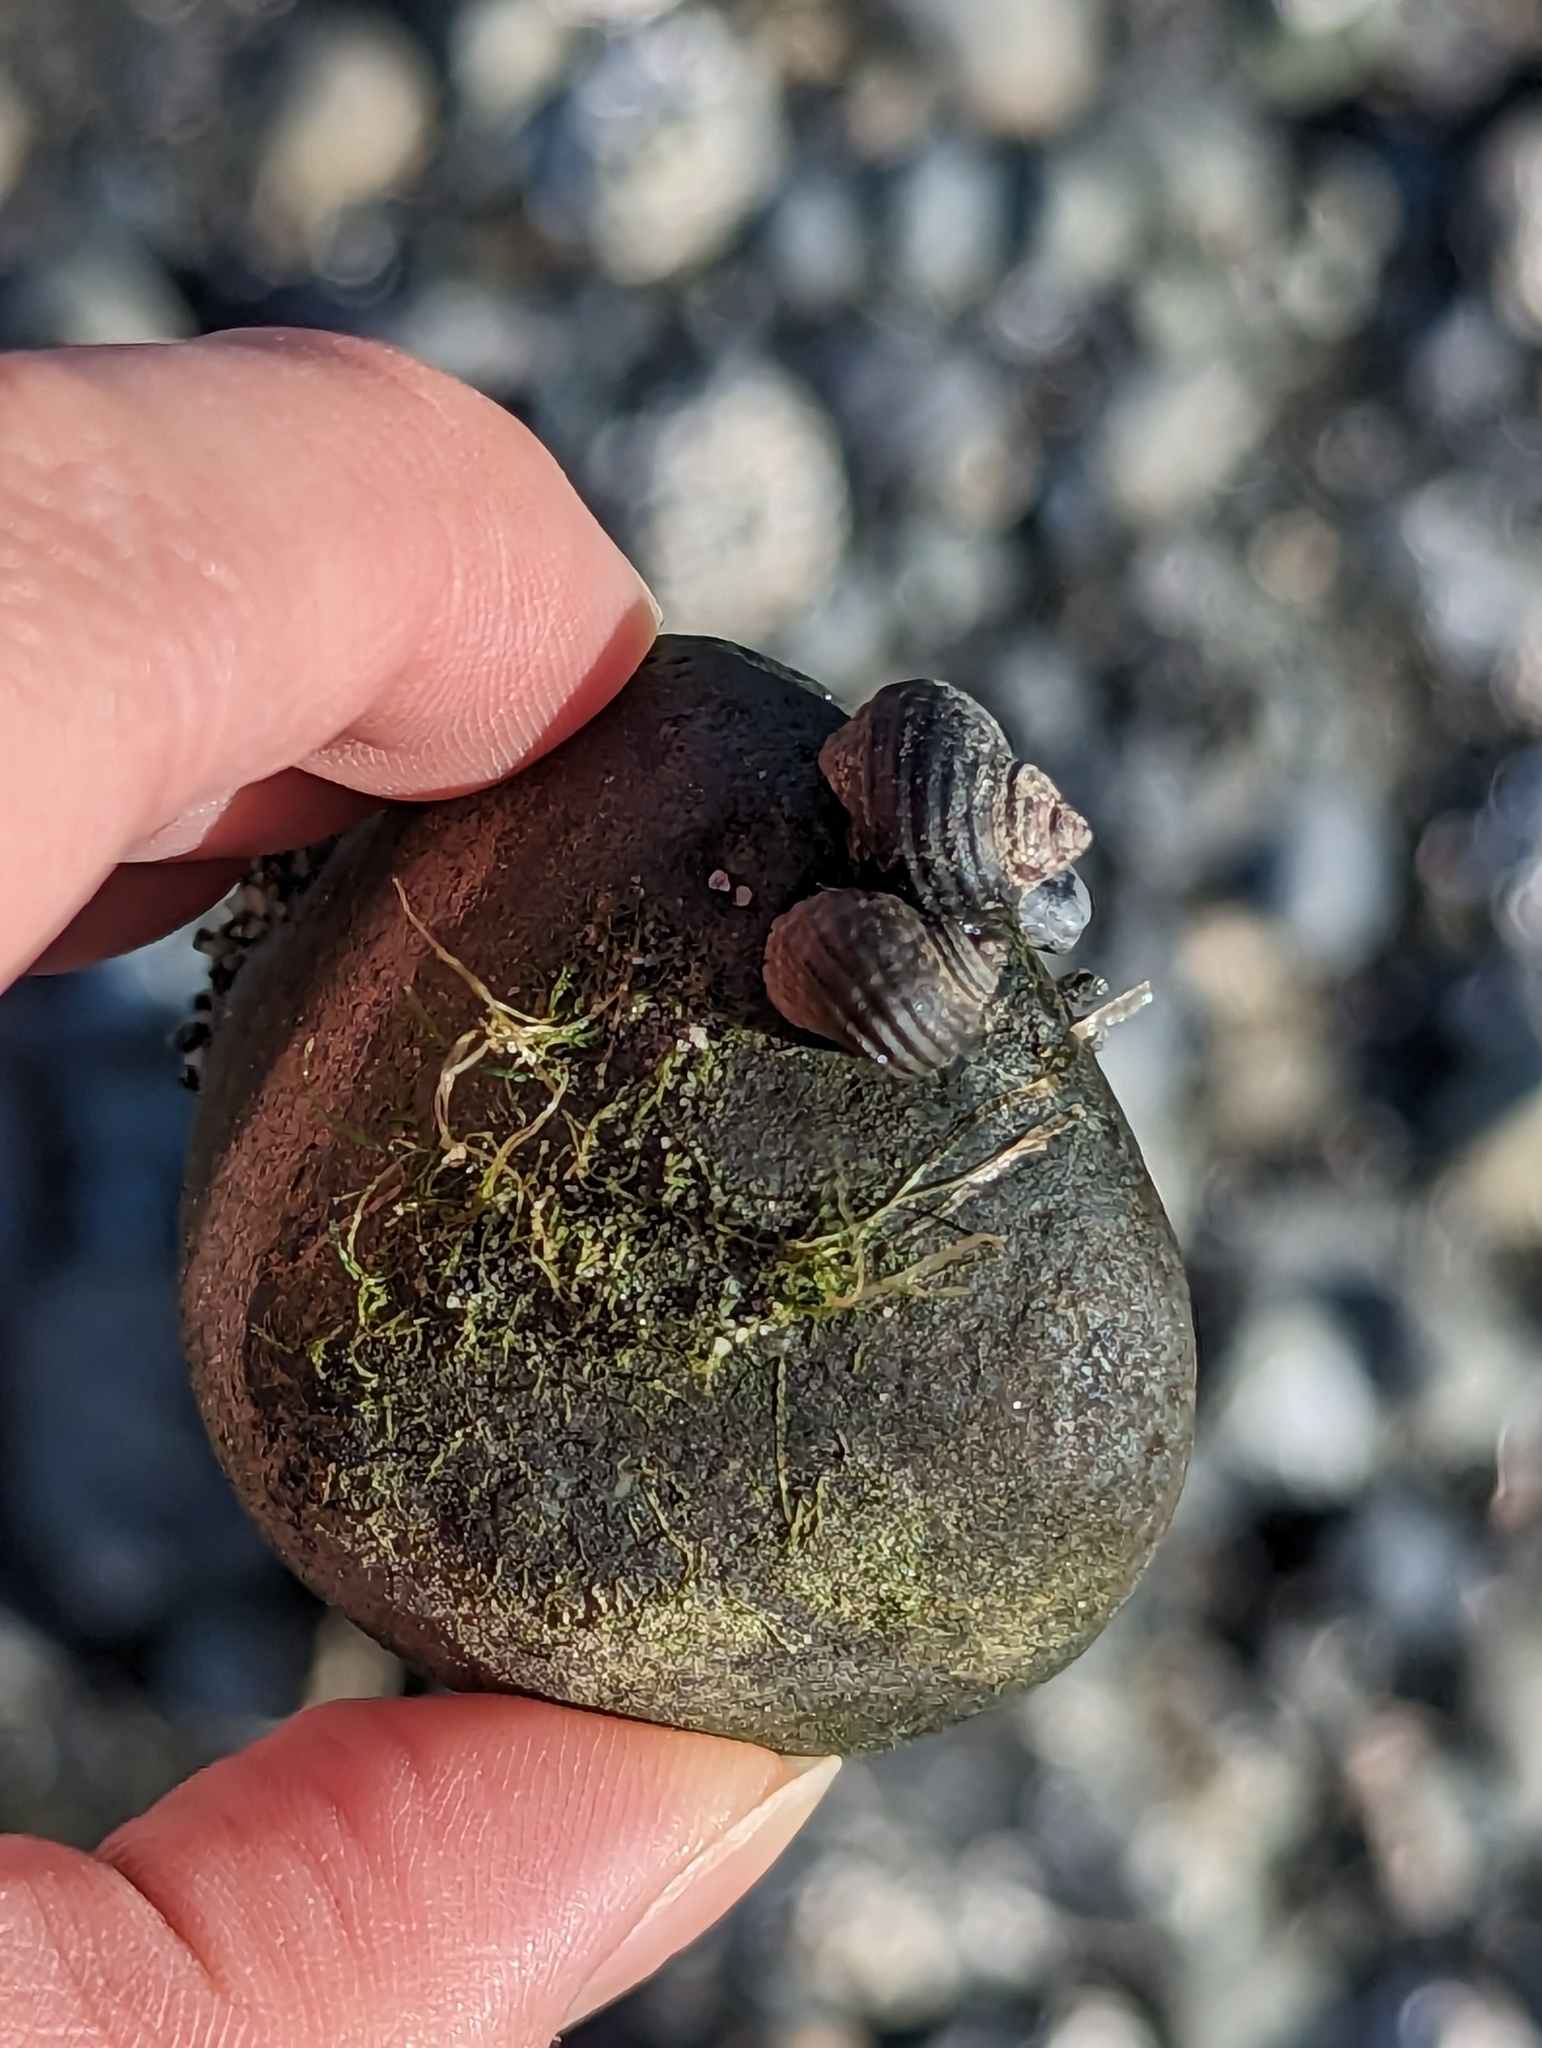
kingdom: Animalia
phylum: Mollusca
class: Gastropoda
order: Littorinimorpha
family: Littorinidae
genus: Littorina
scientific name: Littorina sitkana
